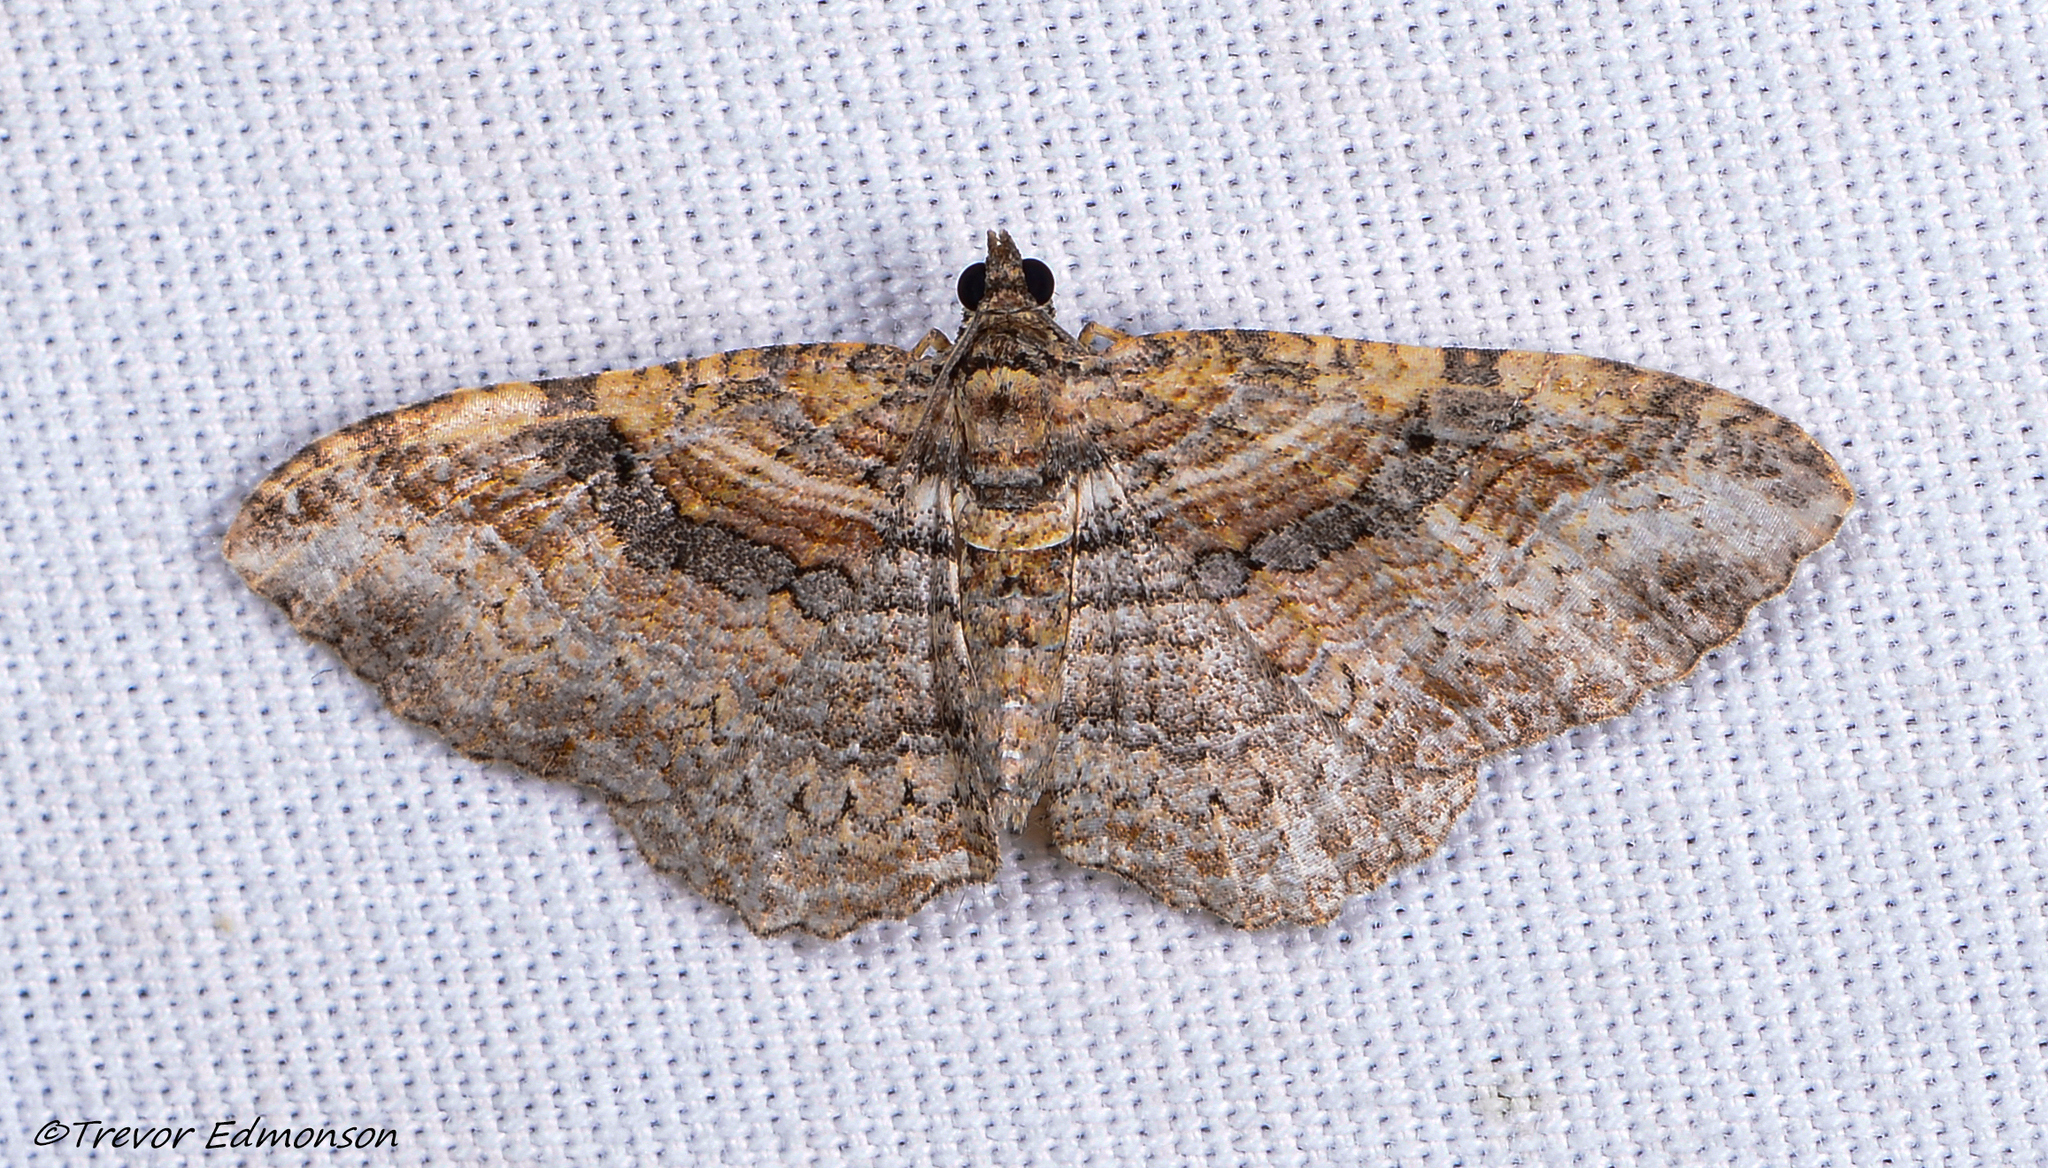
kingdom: Animalia
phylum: Arthropoda
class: Insecta
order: Lepidoptera
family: Geometridae
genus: Costaconvexa
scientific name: Costaconvexa centrostrigaria
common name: Bent-line carpet
